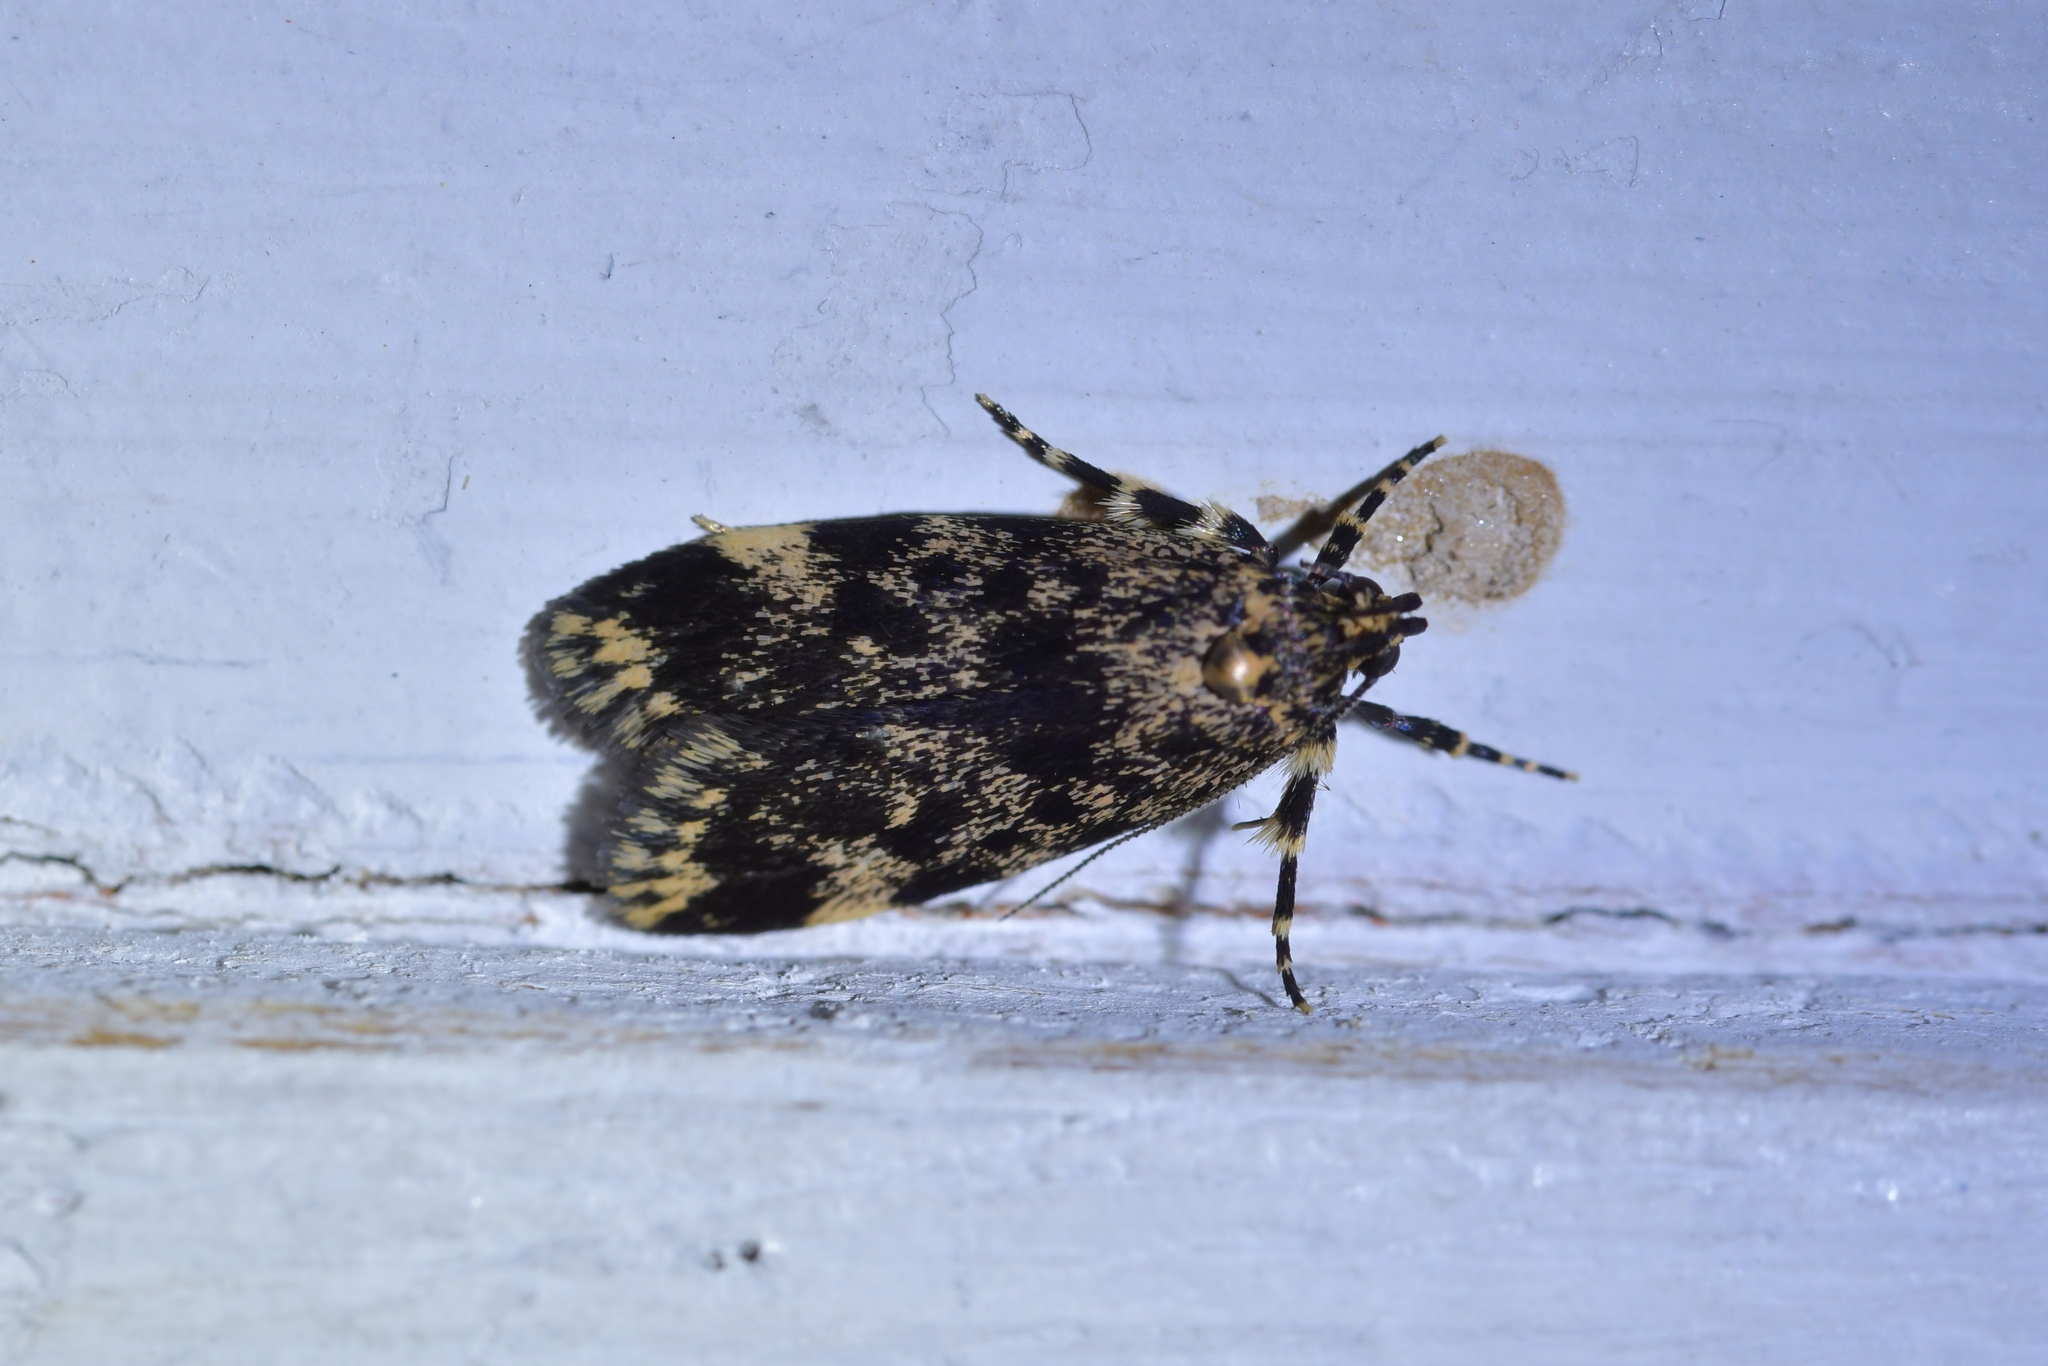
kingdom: Animalia
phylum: Arthropoda
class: Insecta
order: Lepidoptera
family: Oecophoridae
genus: Barea
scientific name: Barea codrella
